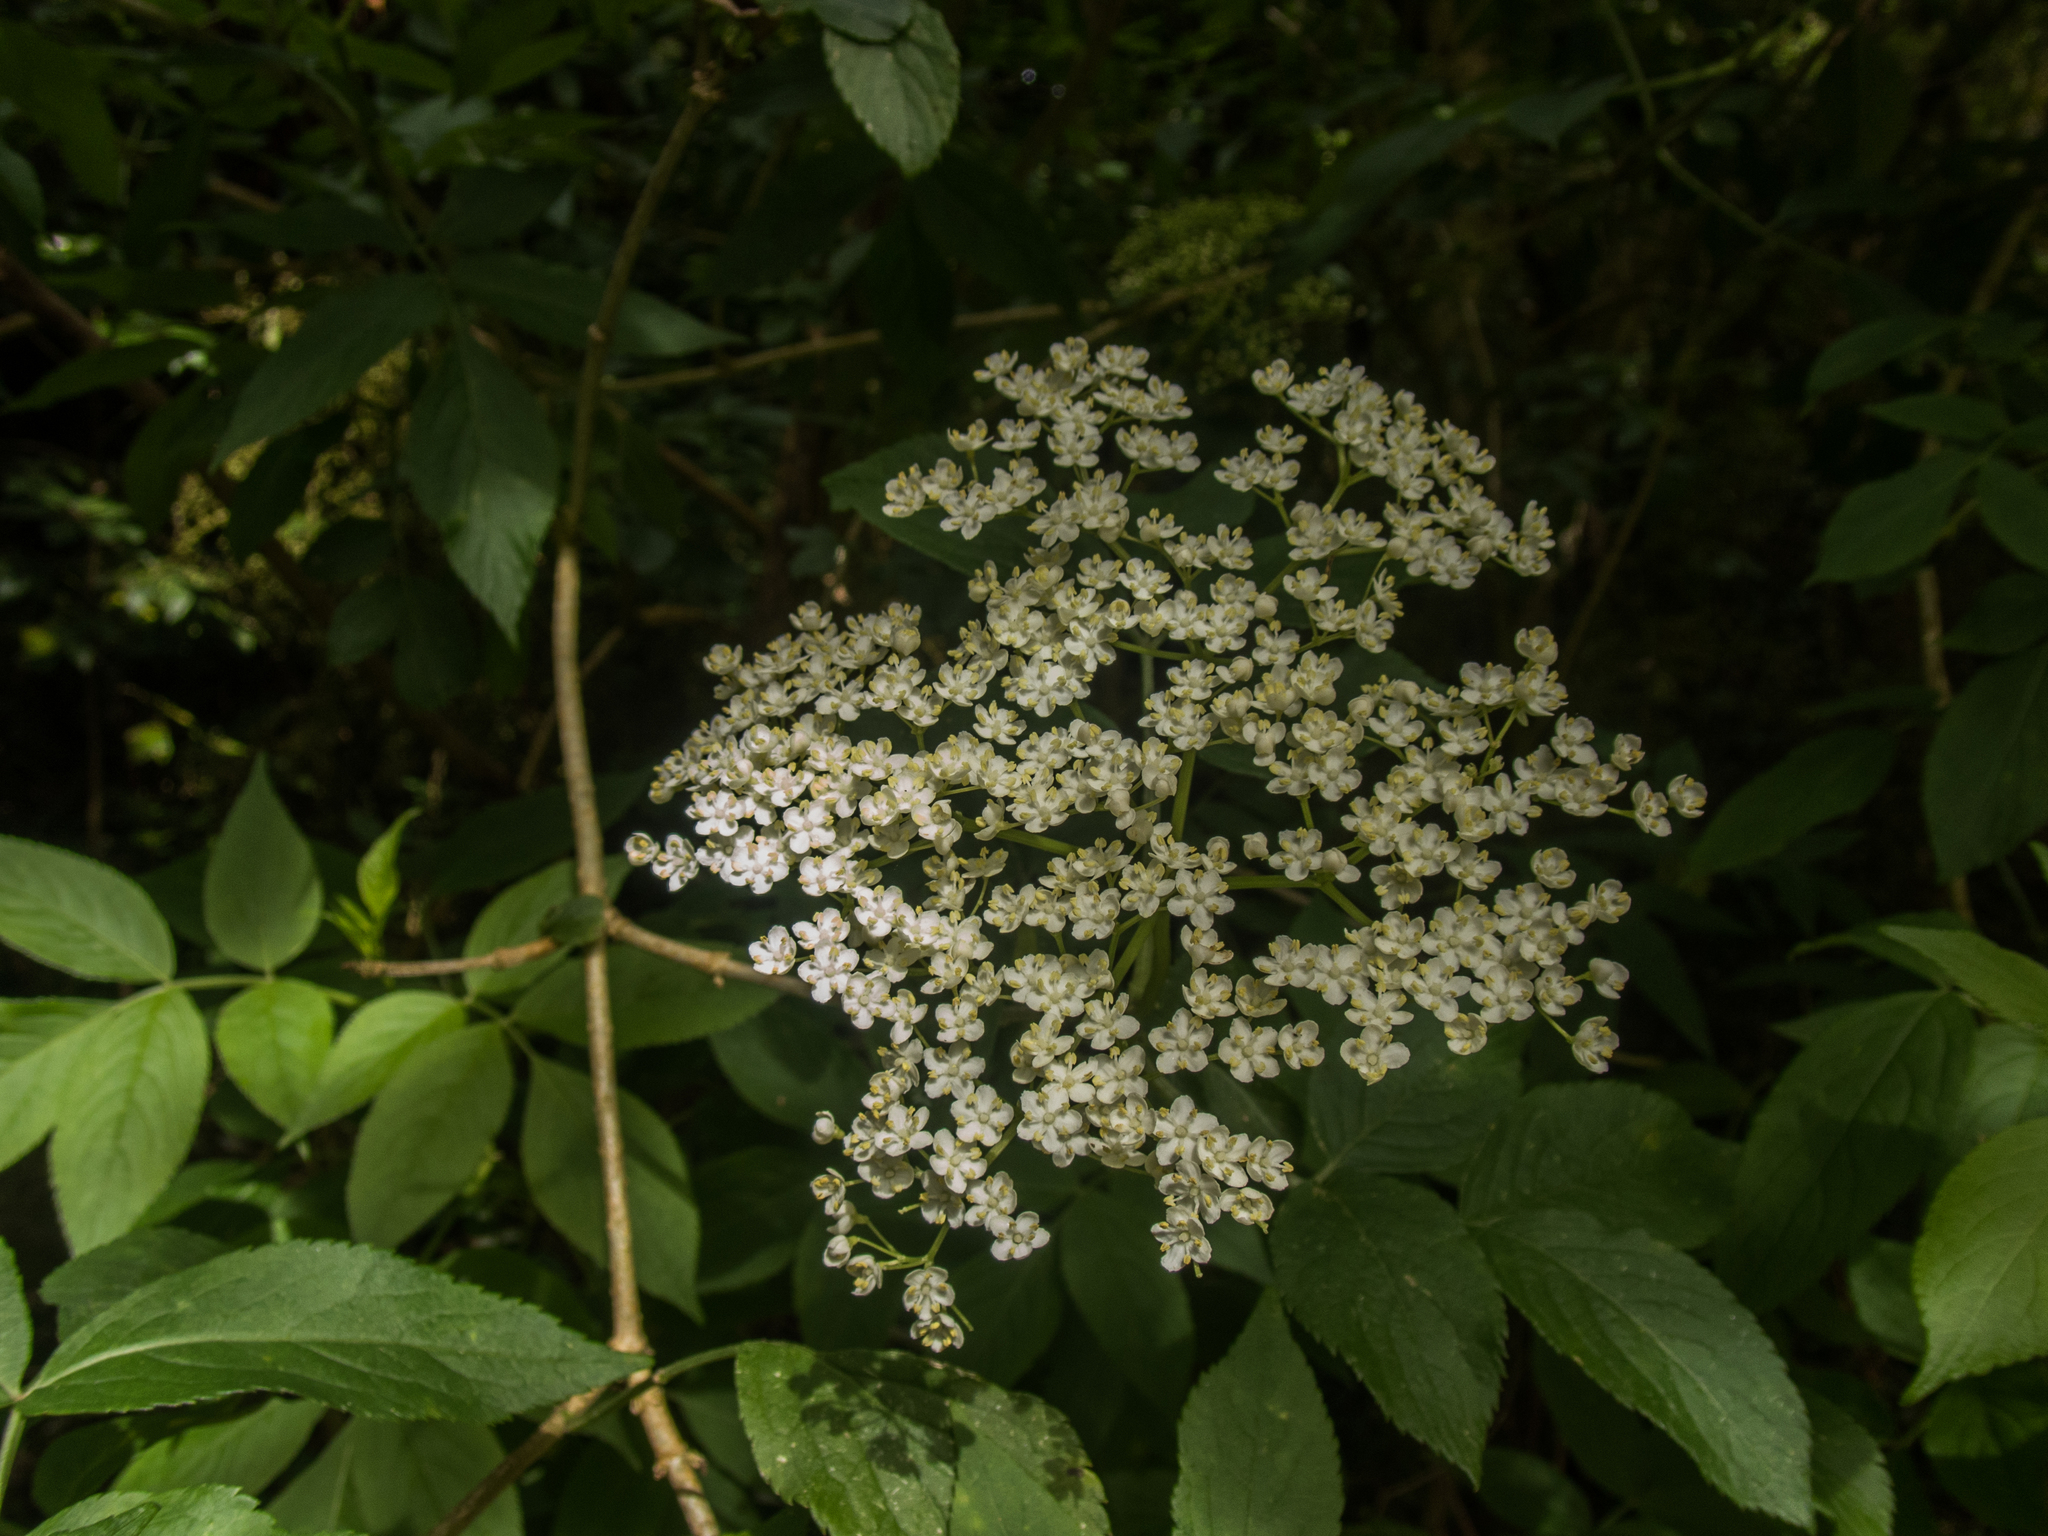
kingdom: Plantae
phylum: Tracheophyta
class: Magnoliopsida
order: Dipsacales
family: Viburnaceae
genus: Sambucus
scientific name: Sambucus nigra
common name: Elder
